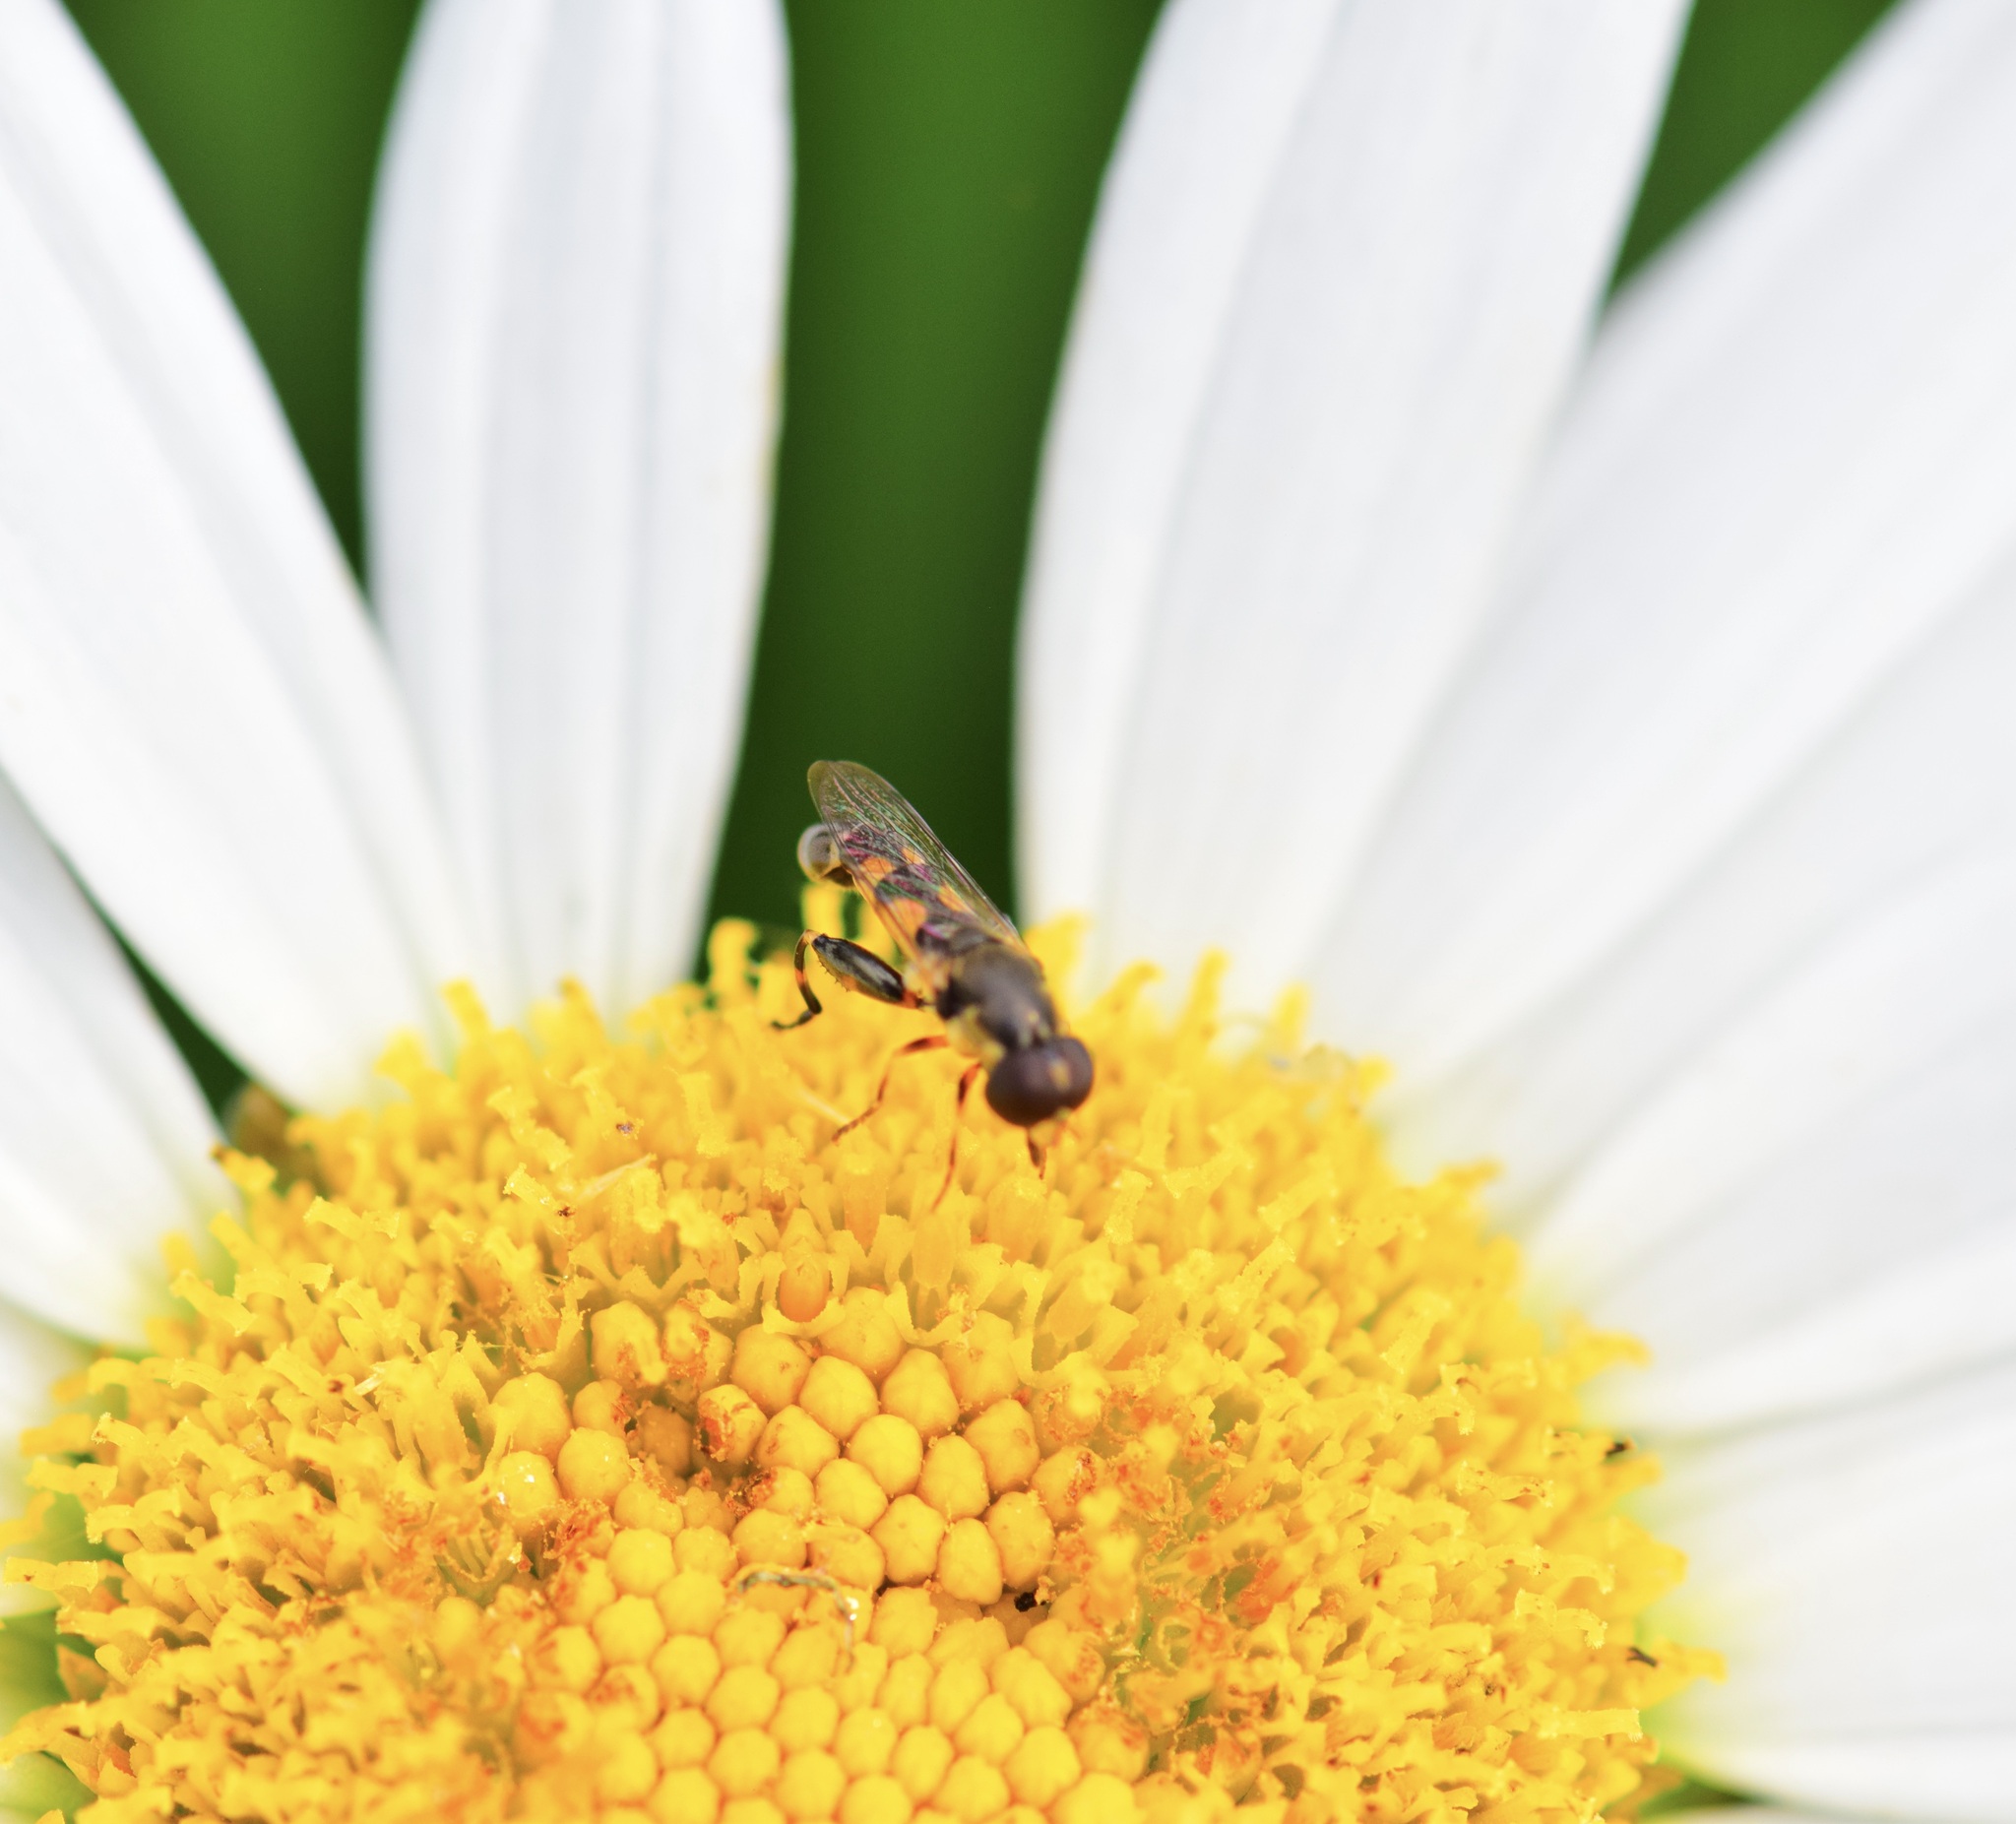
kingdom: Animalia
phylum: Arthropoda
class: Insecta
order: Diptera
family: Syrphidae
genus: Syritta
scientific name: Syritta pipiens
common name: Hover fly
